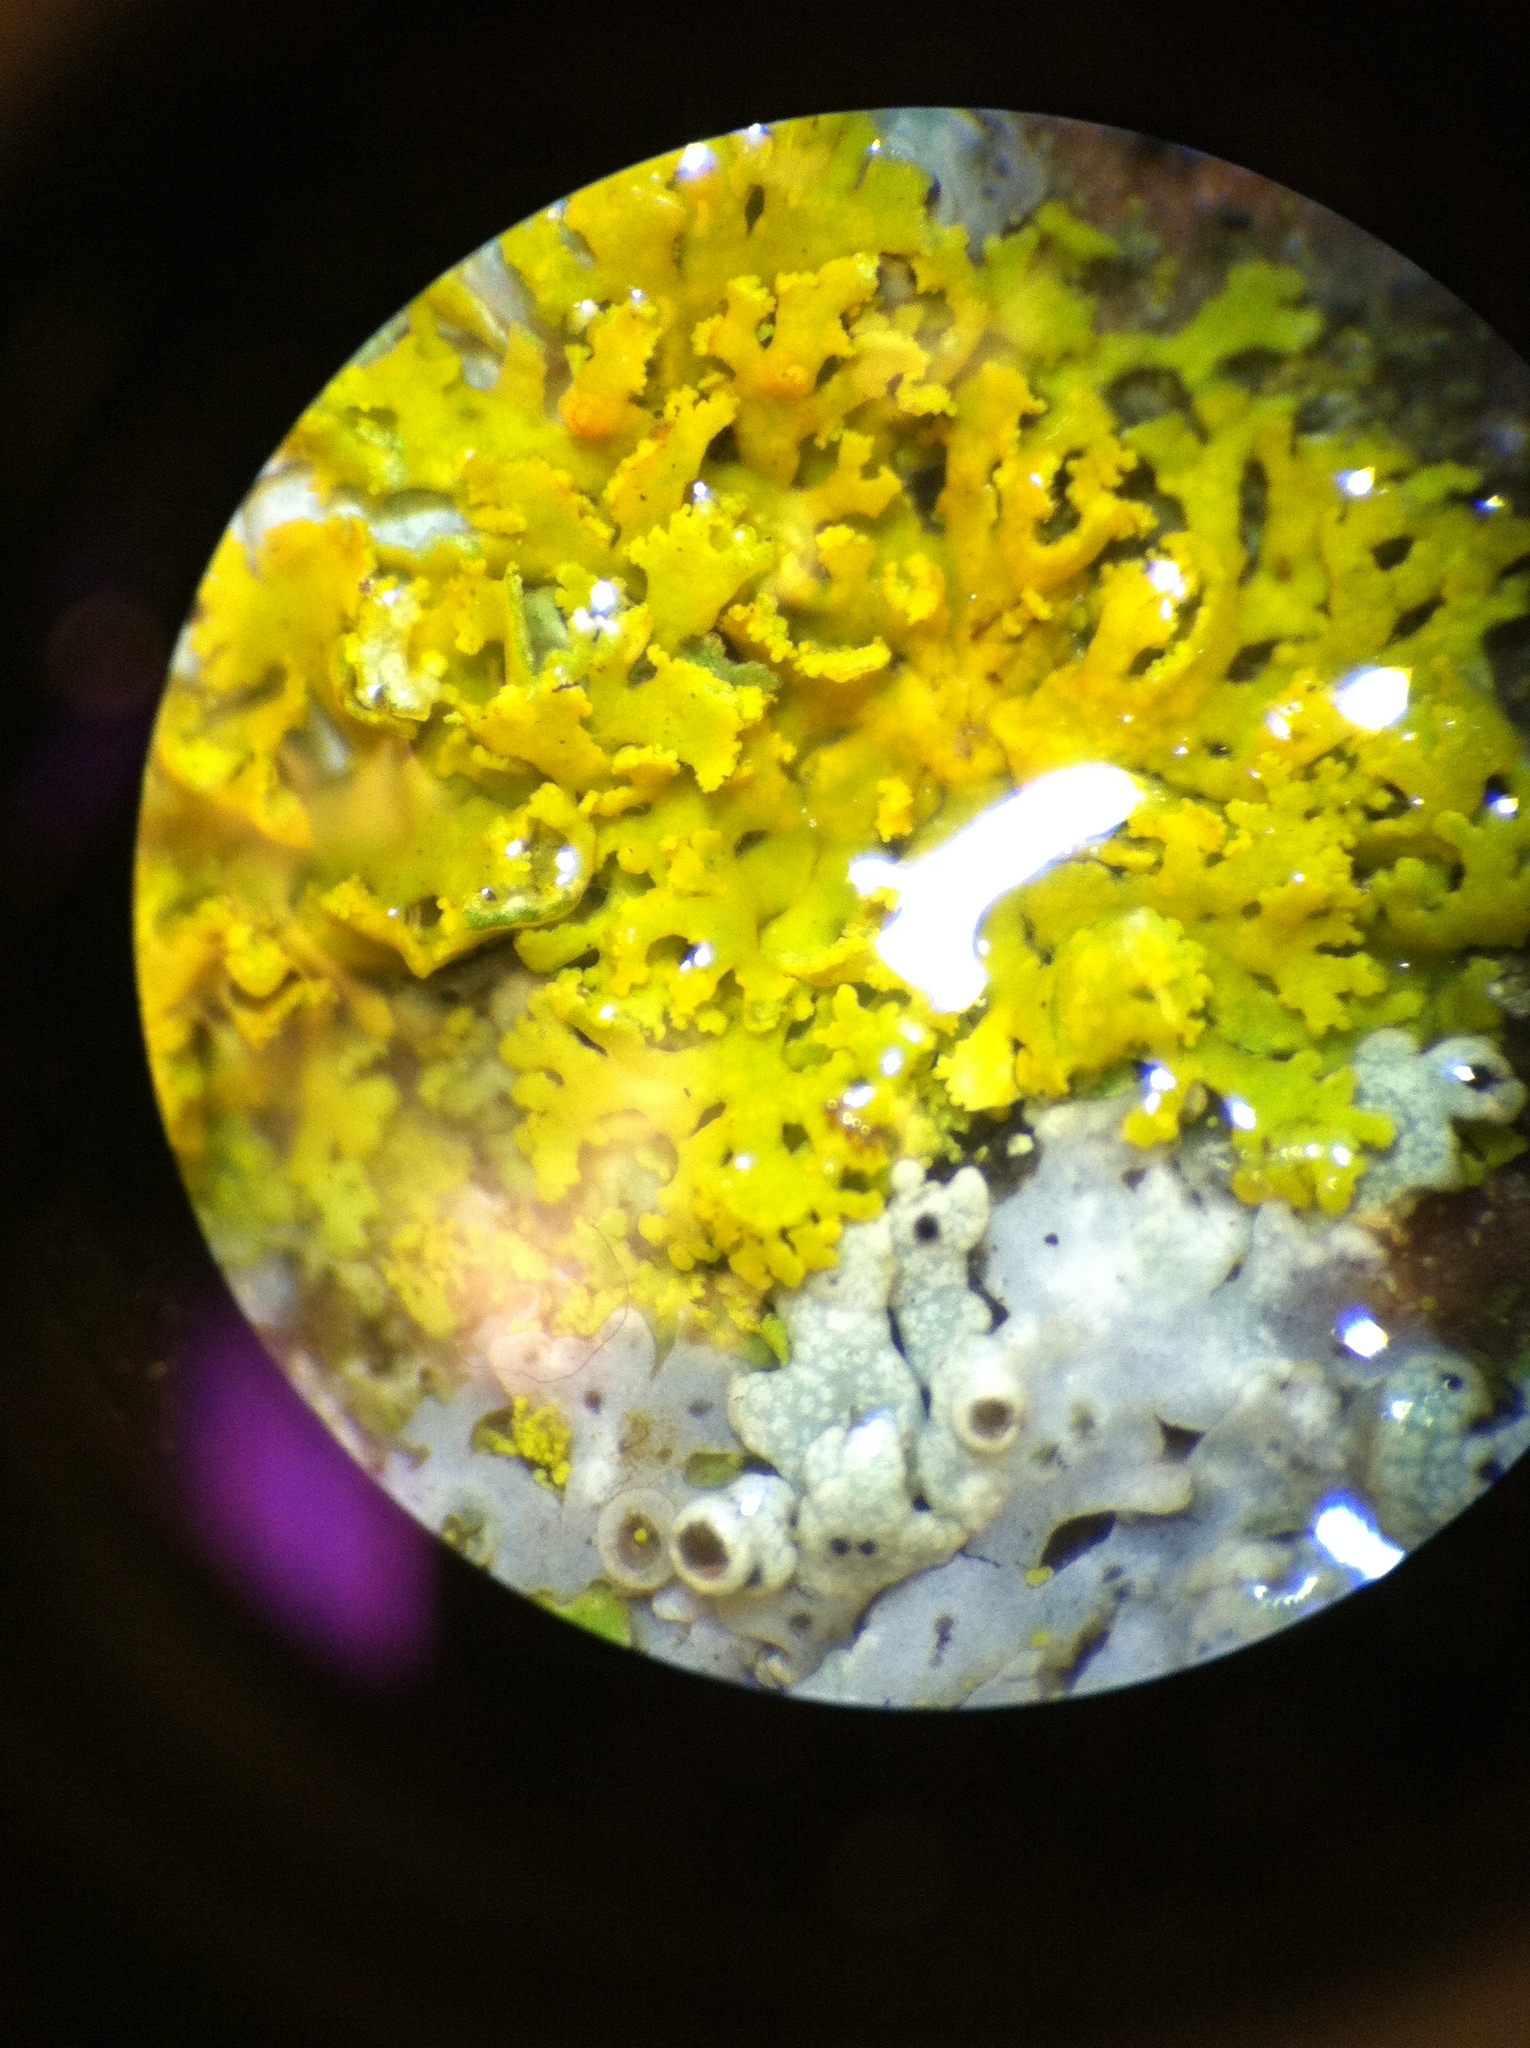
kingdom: Fungi
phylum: Ascomycota
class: Lecanoromycetes
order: Teloschistales
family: Teloschistaceae
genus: Gallowayella
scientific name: Gallowayella weberi
